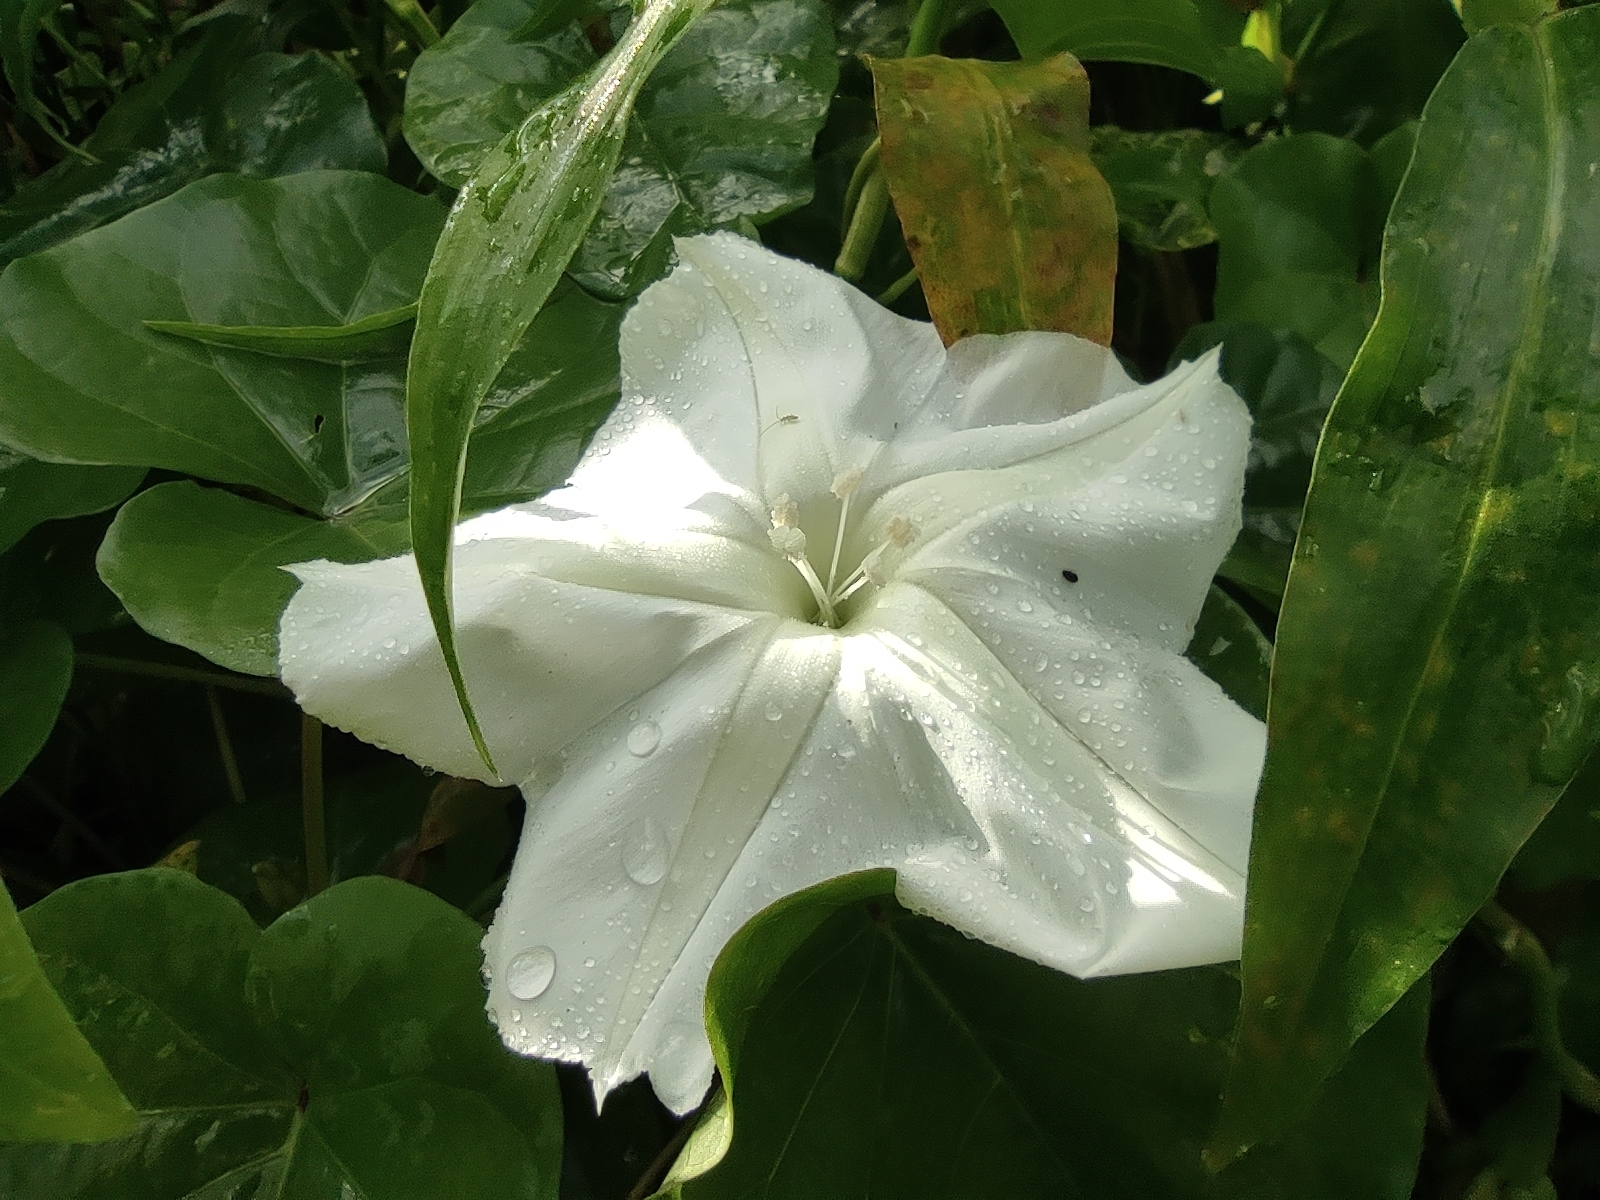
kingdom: Plantae
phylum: Tracheophyta
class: Magnoliopsida
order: Solanales
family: Convolvulaceae
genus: Ipomoea
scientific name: Ipomoea alba
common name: Moonflower
